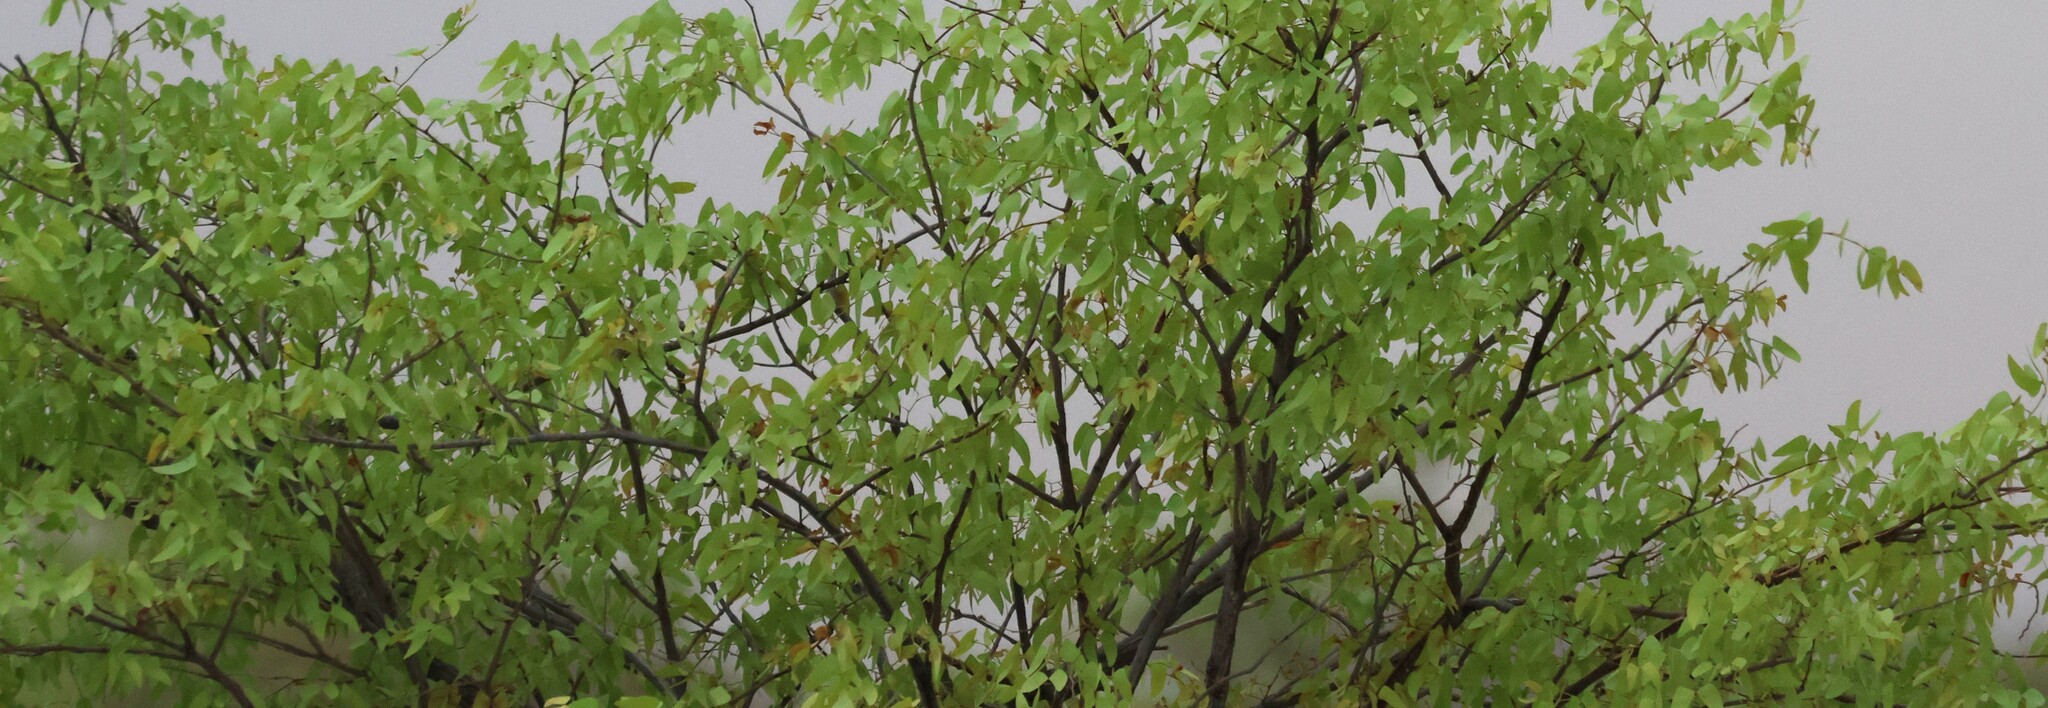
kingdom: Plantae
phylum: Tracheophyta
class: Magnoliopsida
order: Fabales
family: Fabaceae
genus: Colophospermum
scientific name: Colophospermum mopane
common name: Mopane
